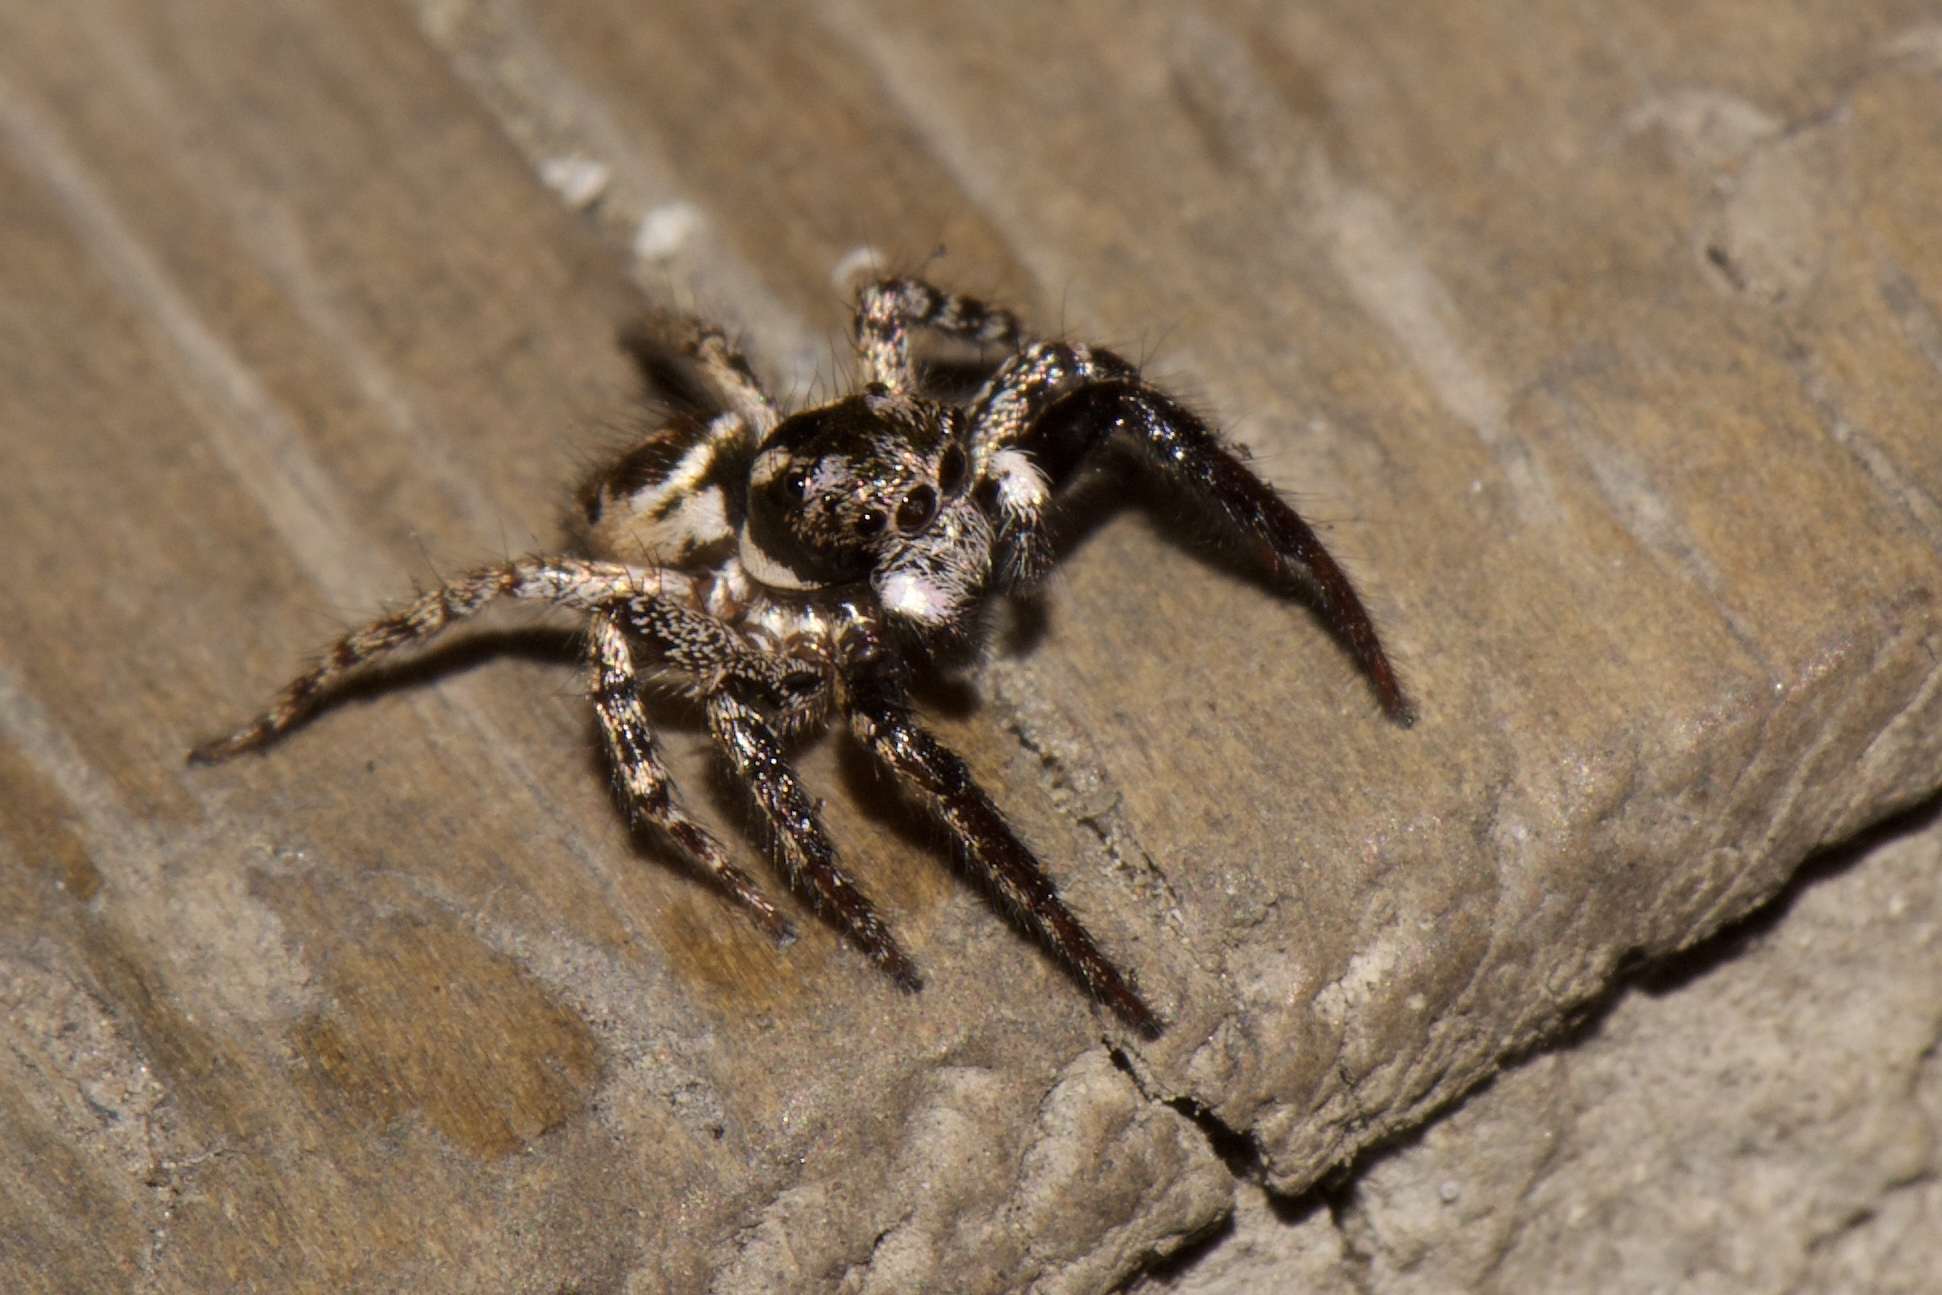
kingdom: Animalia
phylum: Arthropoda
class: Arachnida
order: Araneae
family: Salticidae
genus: Anasaitis
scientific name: Anasaitis canosa
